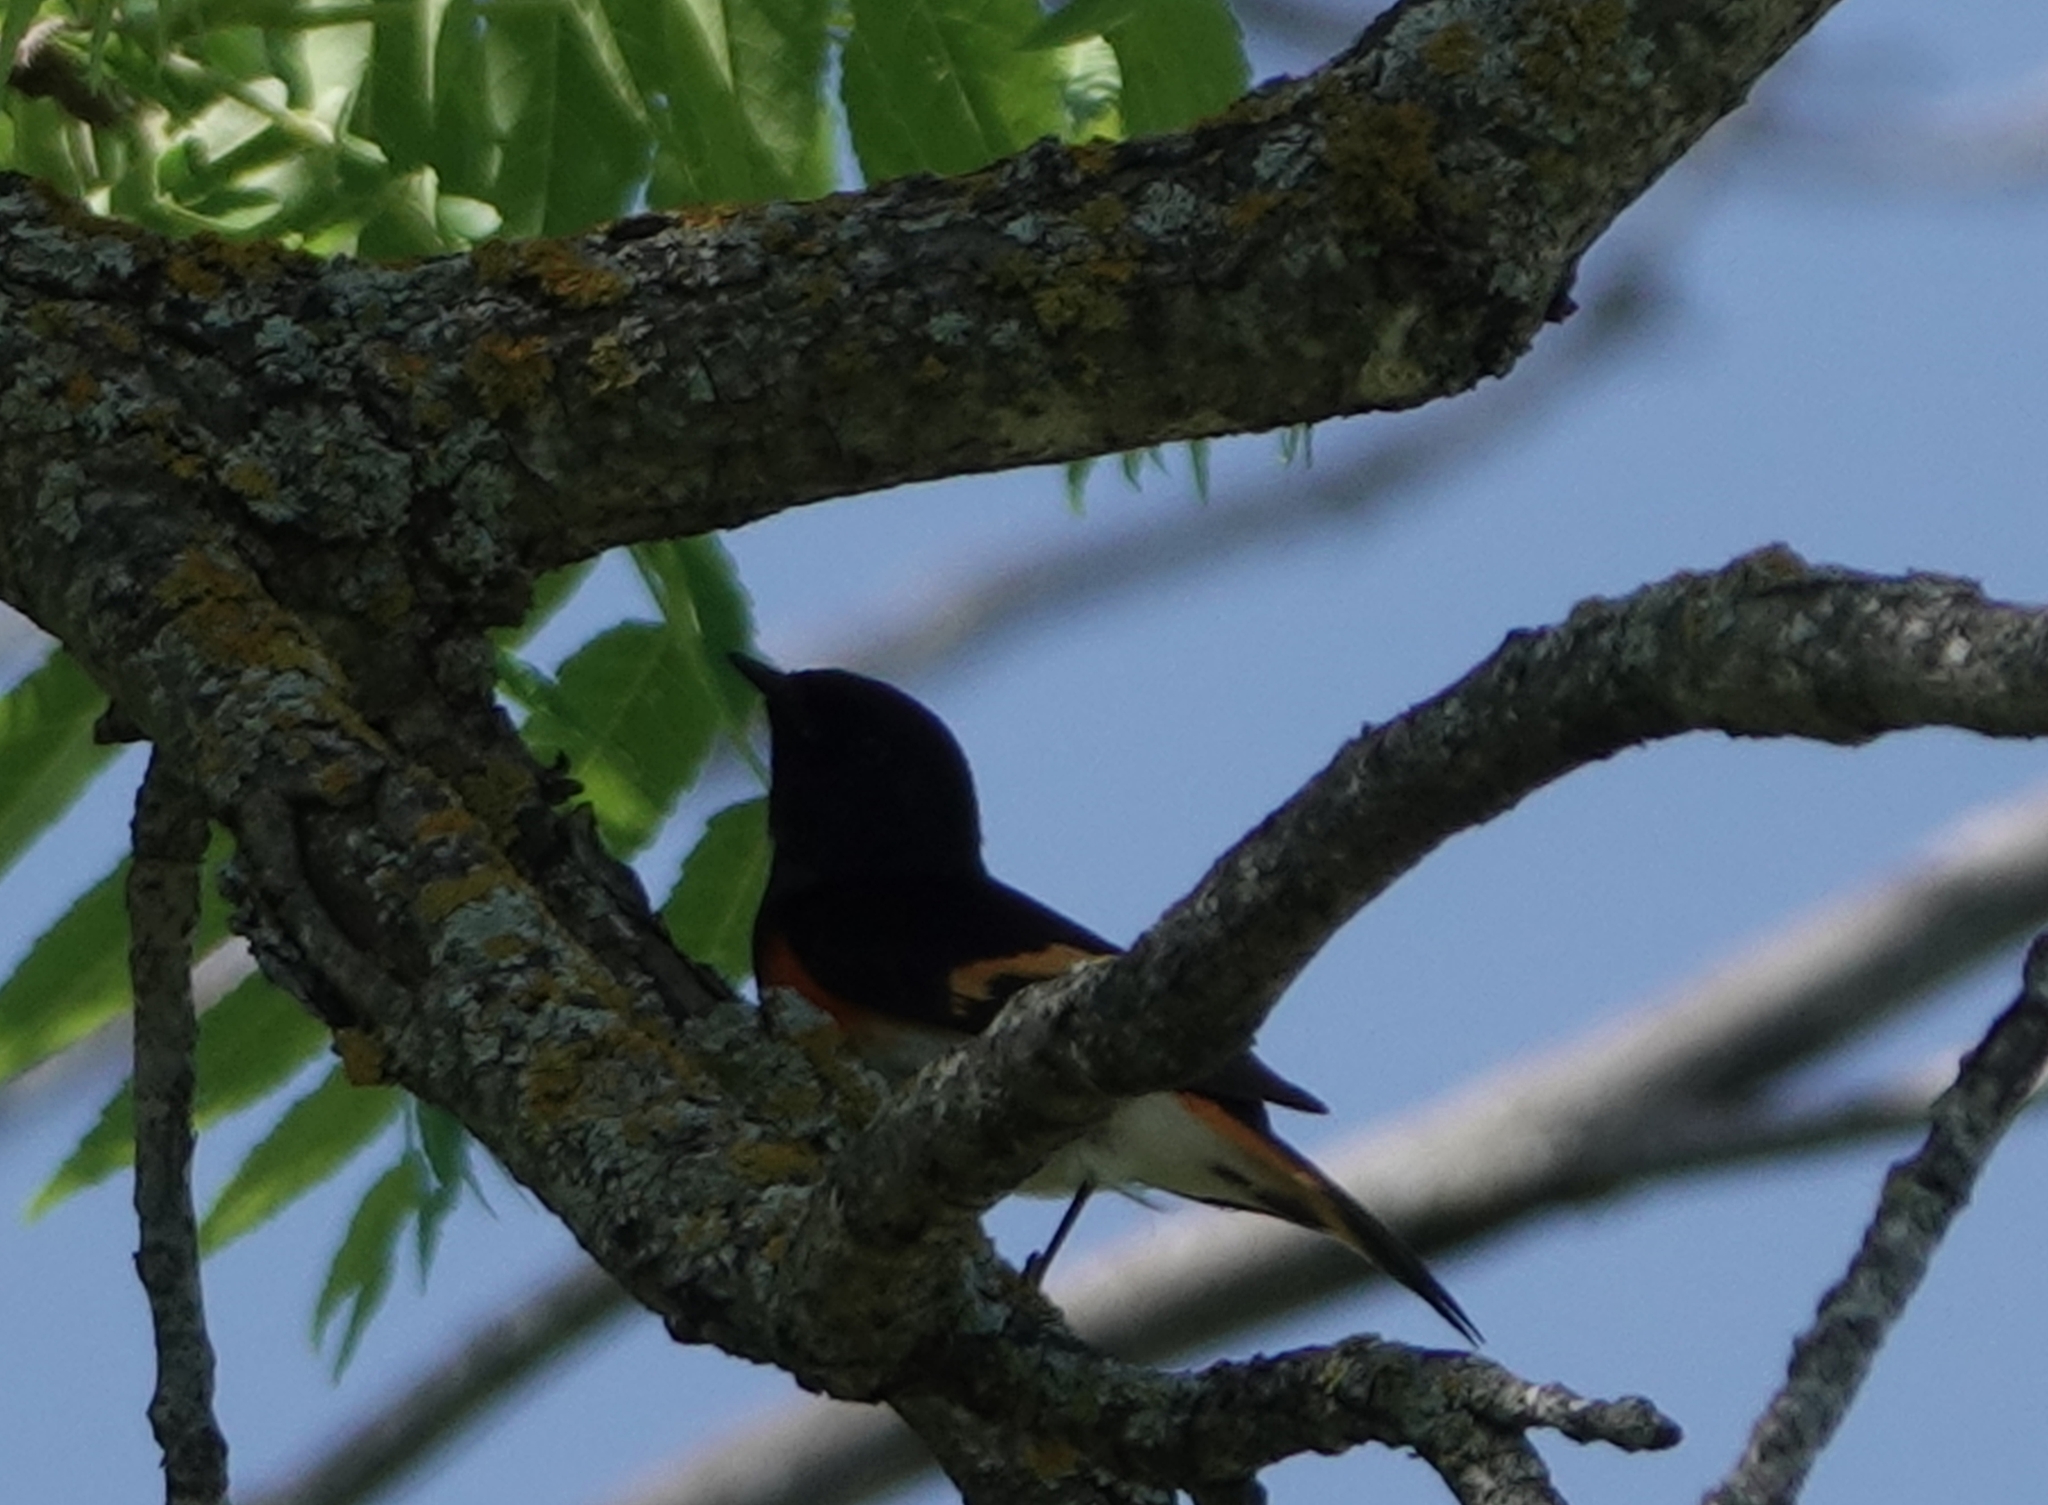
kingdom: Animalia
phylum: Chordata
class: Aves
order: Passeriformes
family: Parulidae
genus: Setophaga
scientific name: Setophaga ruticilla
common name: American redstart
